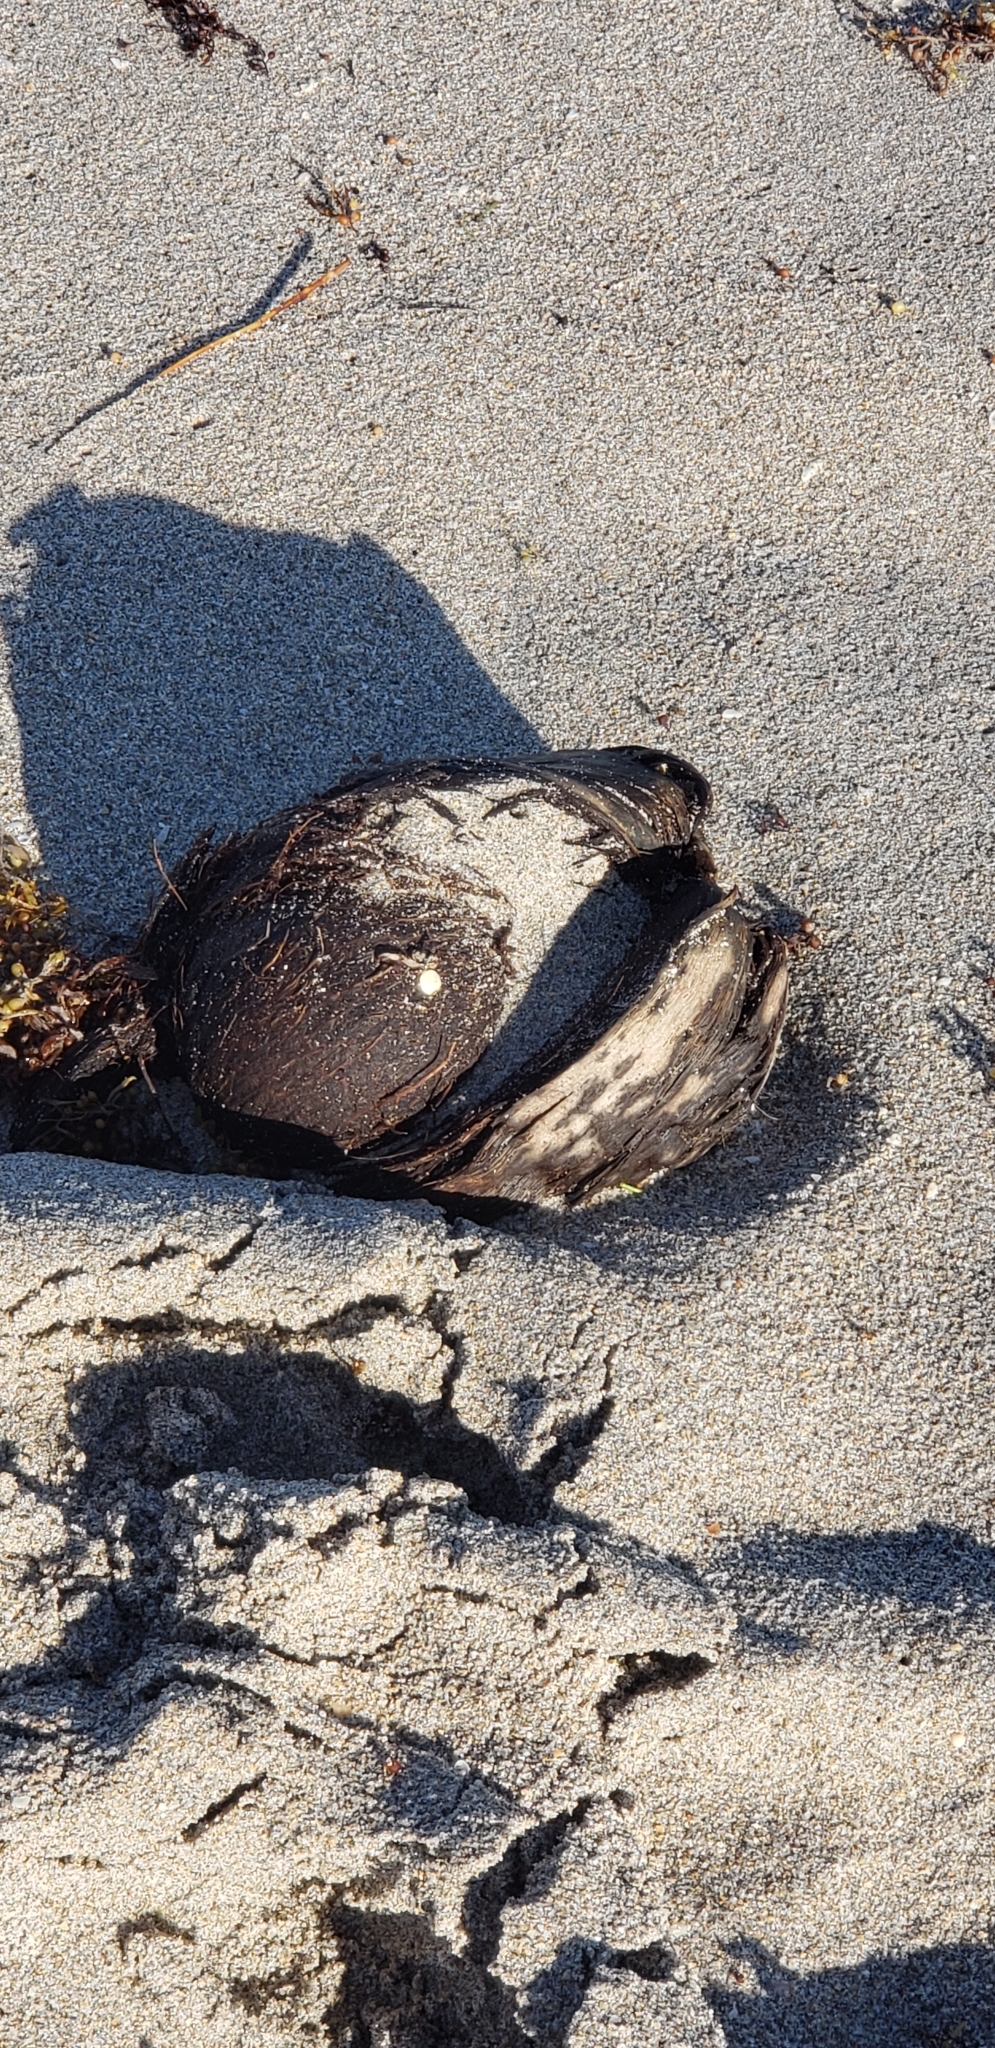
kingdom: Plantae
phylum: Tracheophyta
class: Liliopsida
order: Arecales
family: Arecaceae
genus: Cocos
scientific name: Cocos nucifera
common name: Coconut palm
